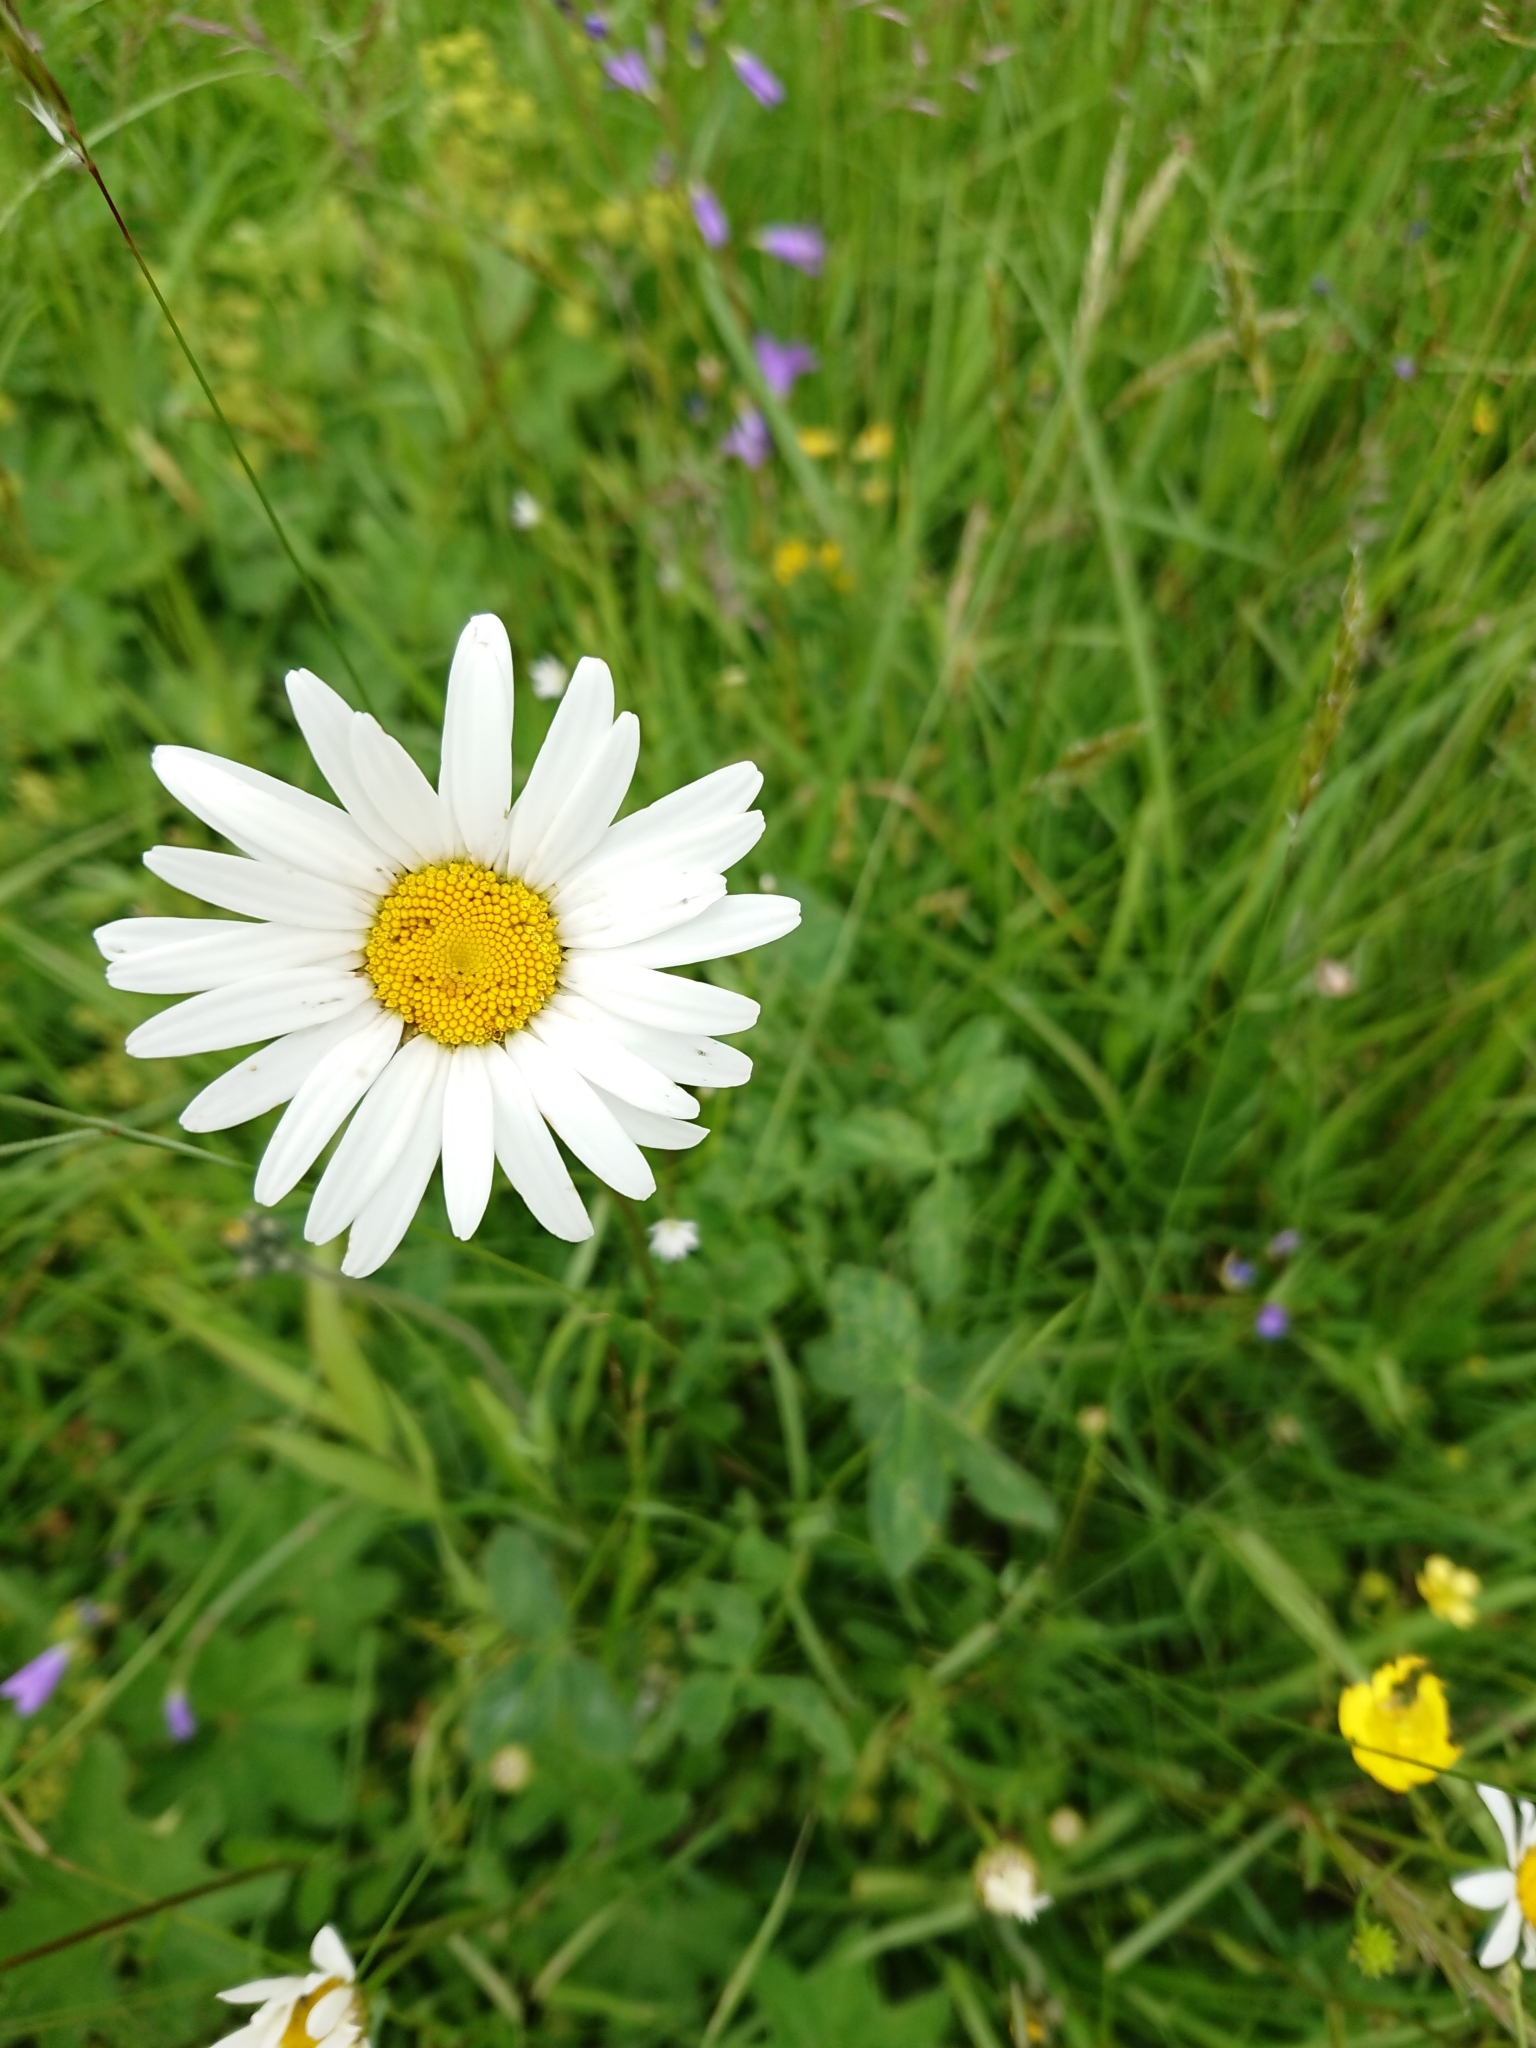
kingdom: Plantae
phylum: Tracheophyta
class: Magnoliopsida
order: Asterales
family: Asteraceae
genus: Leucanthemum
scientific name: Leucanthemum vulgare
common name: Oxeye daisy
